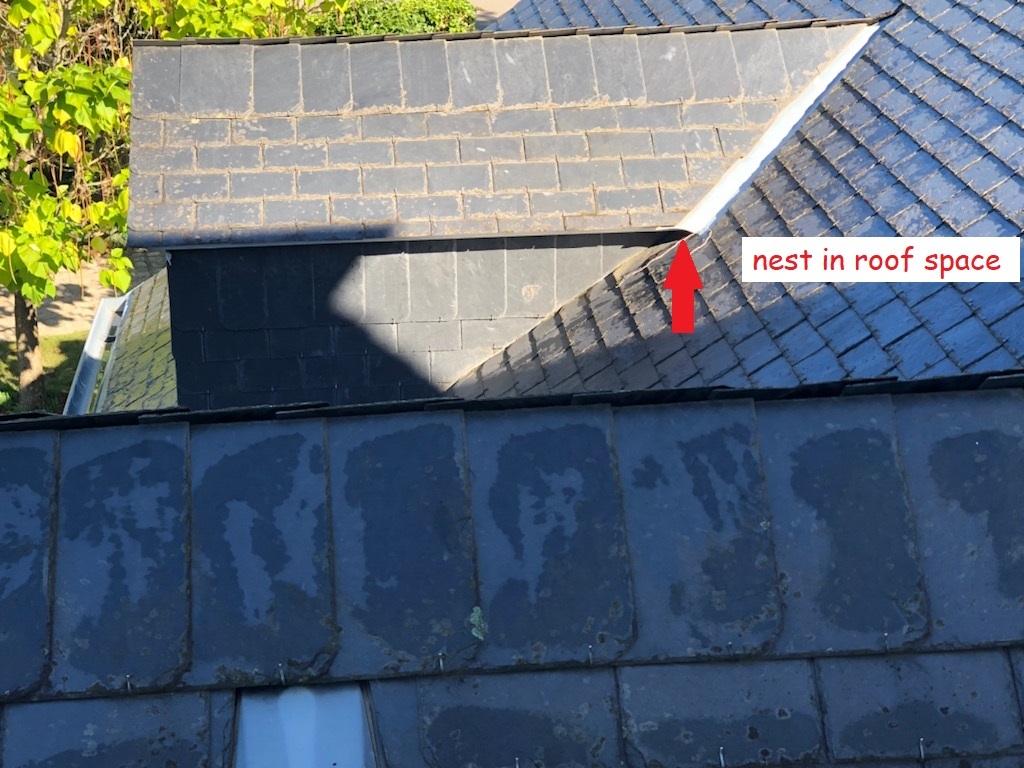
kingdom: Animalia
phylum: Arthropoda
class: Insecta
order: Hymenoptera
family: Vespidae
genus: Vespula
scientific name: Vespula germanica
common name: German wasp
